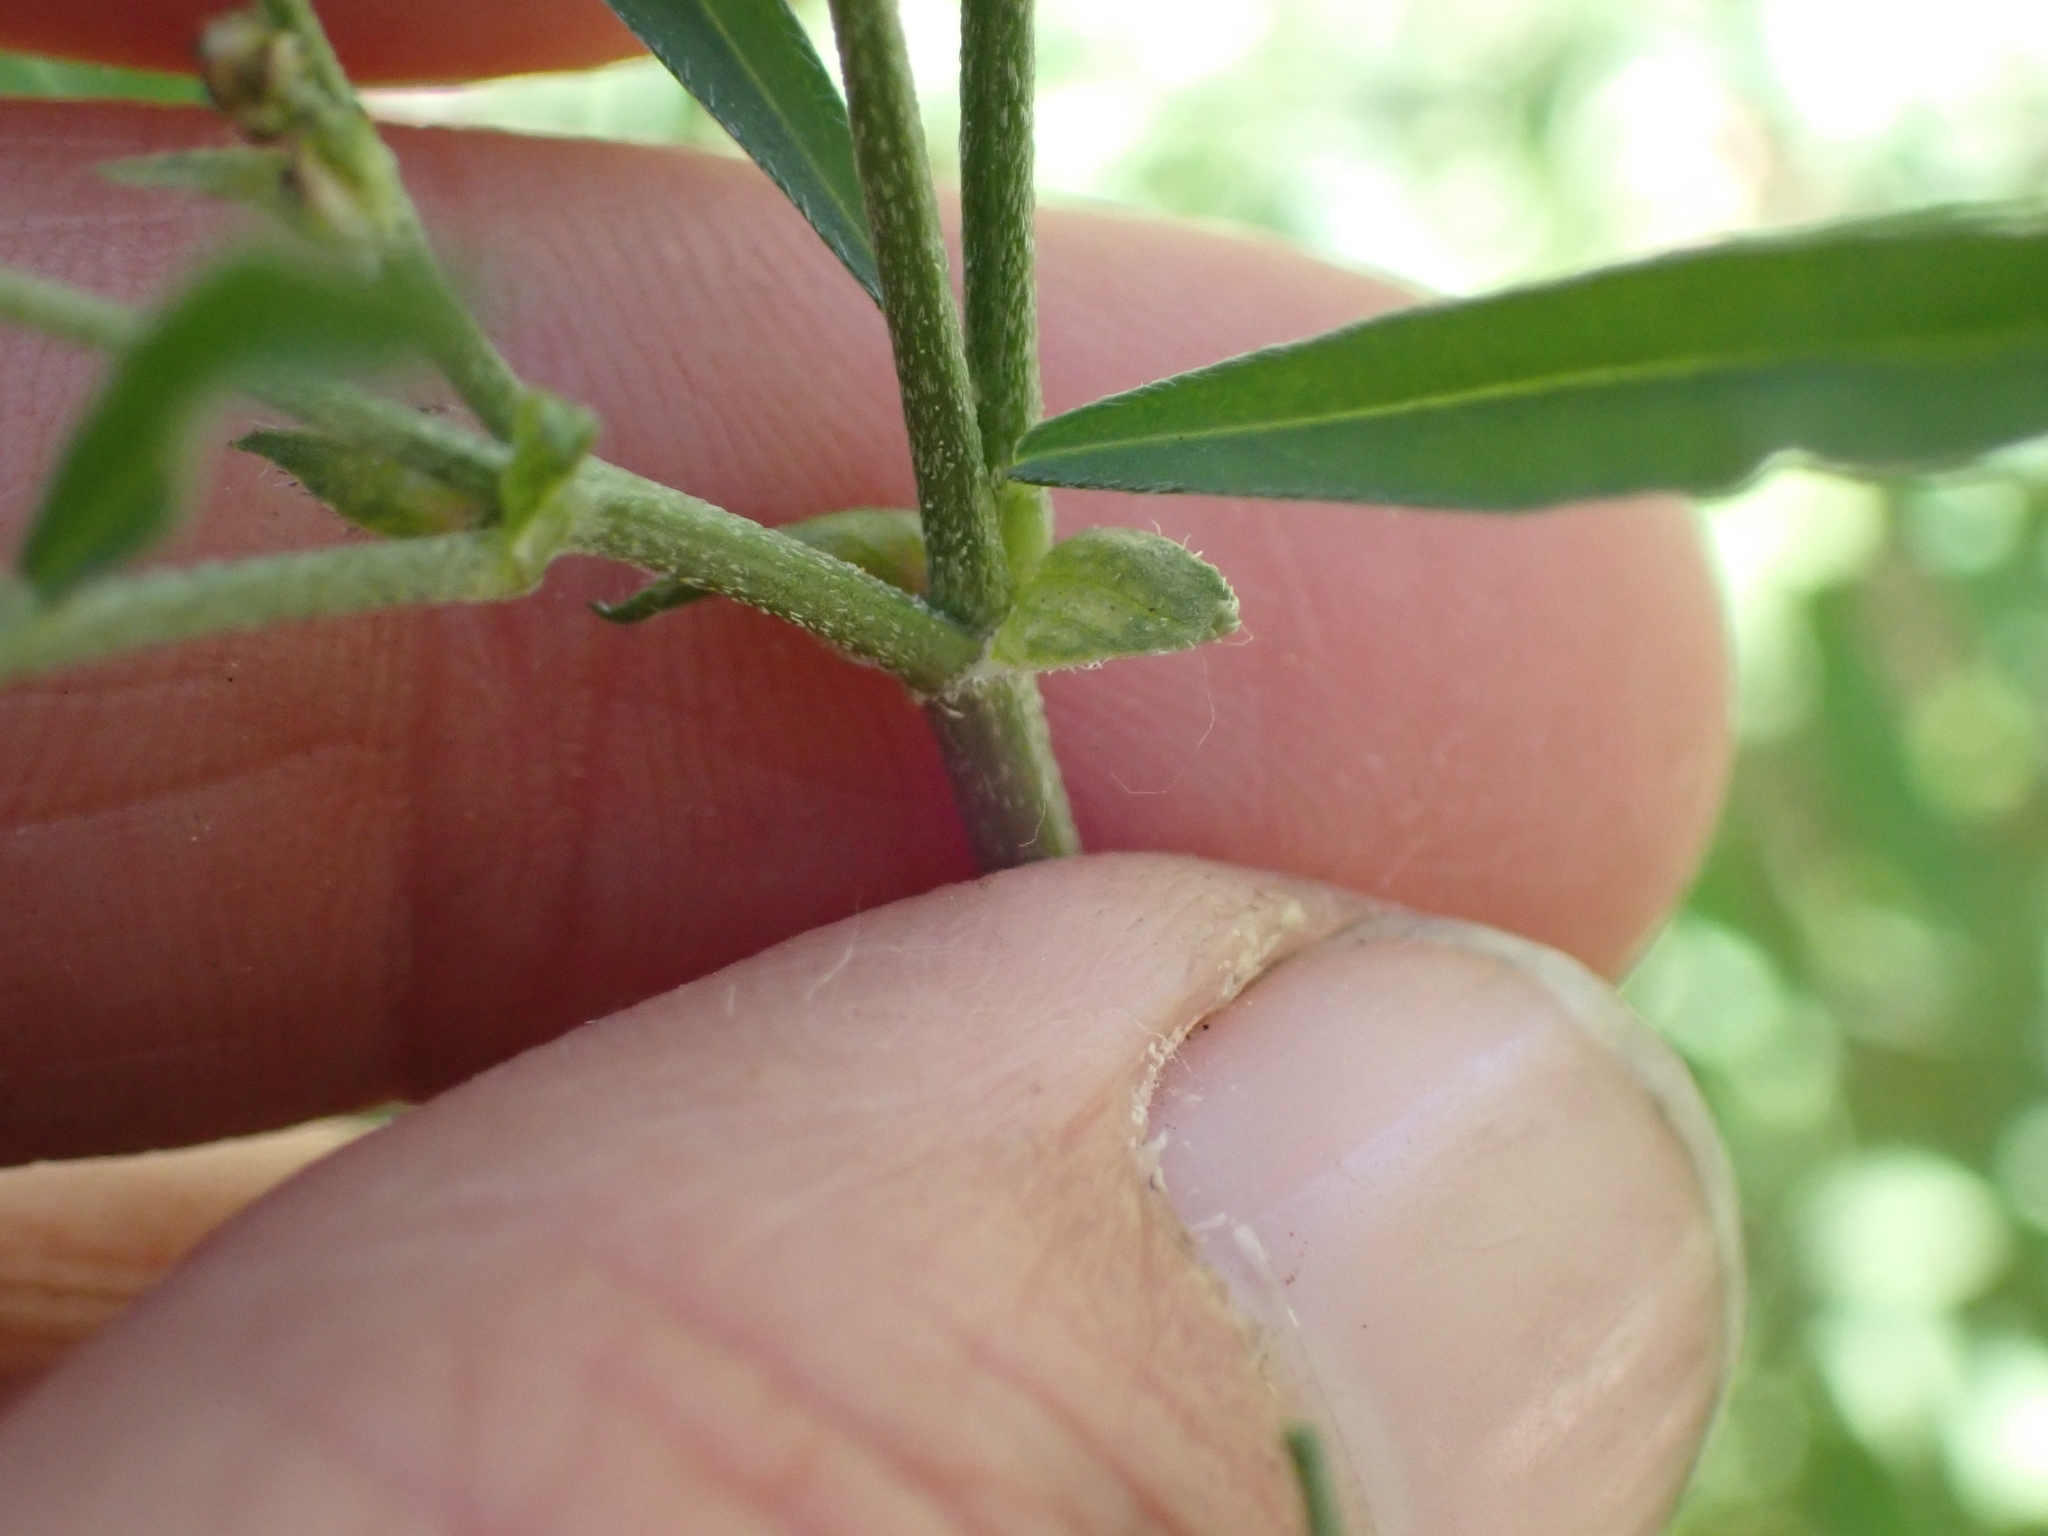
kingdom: Plantae
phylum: Tracheophyta
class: Magnoliopsida
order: Fabales
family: Fabaceae
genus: Astragalus
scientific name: Astragalus miser
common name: Timber milkvetch
